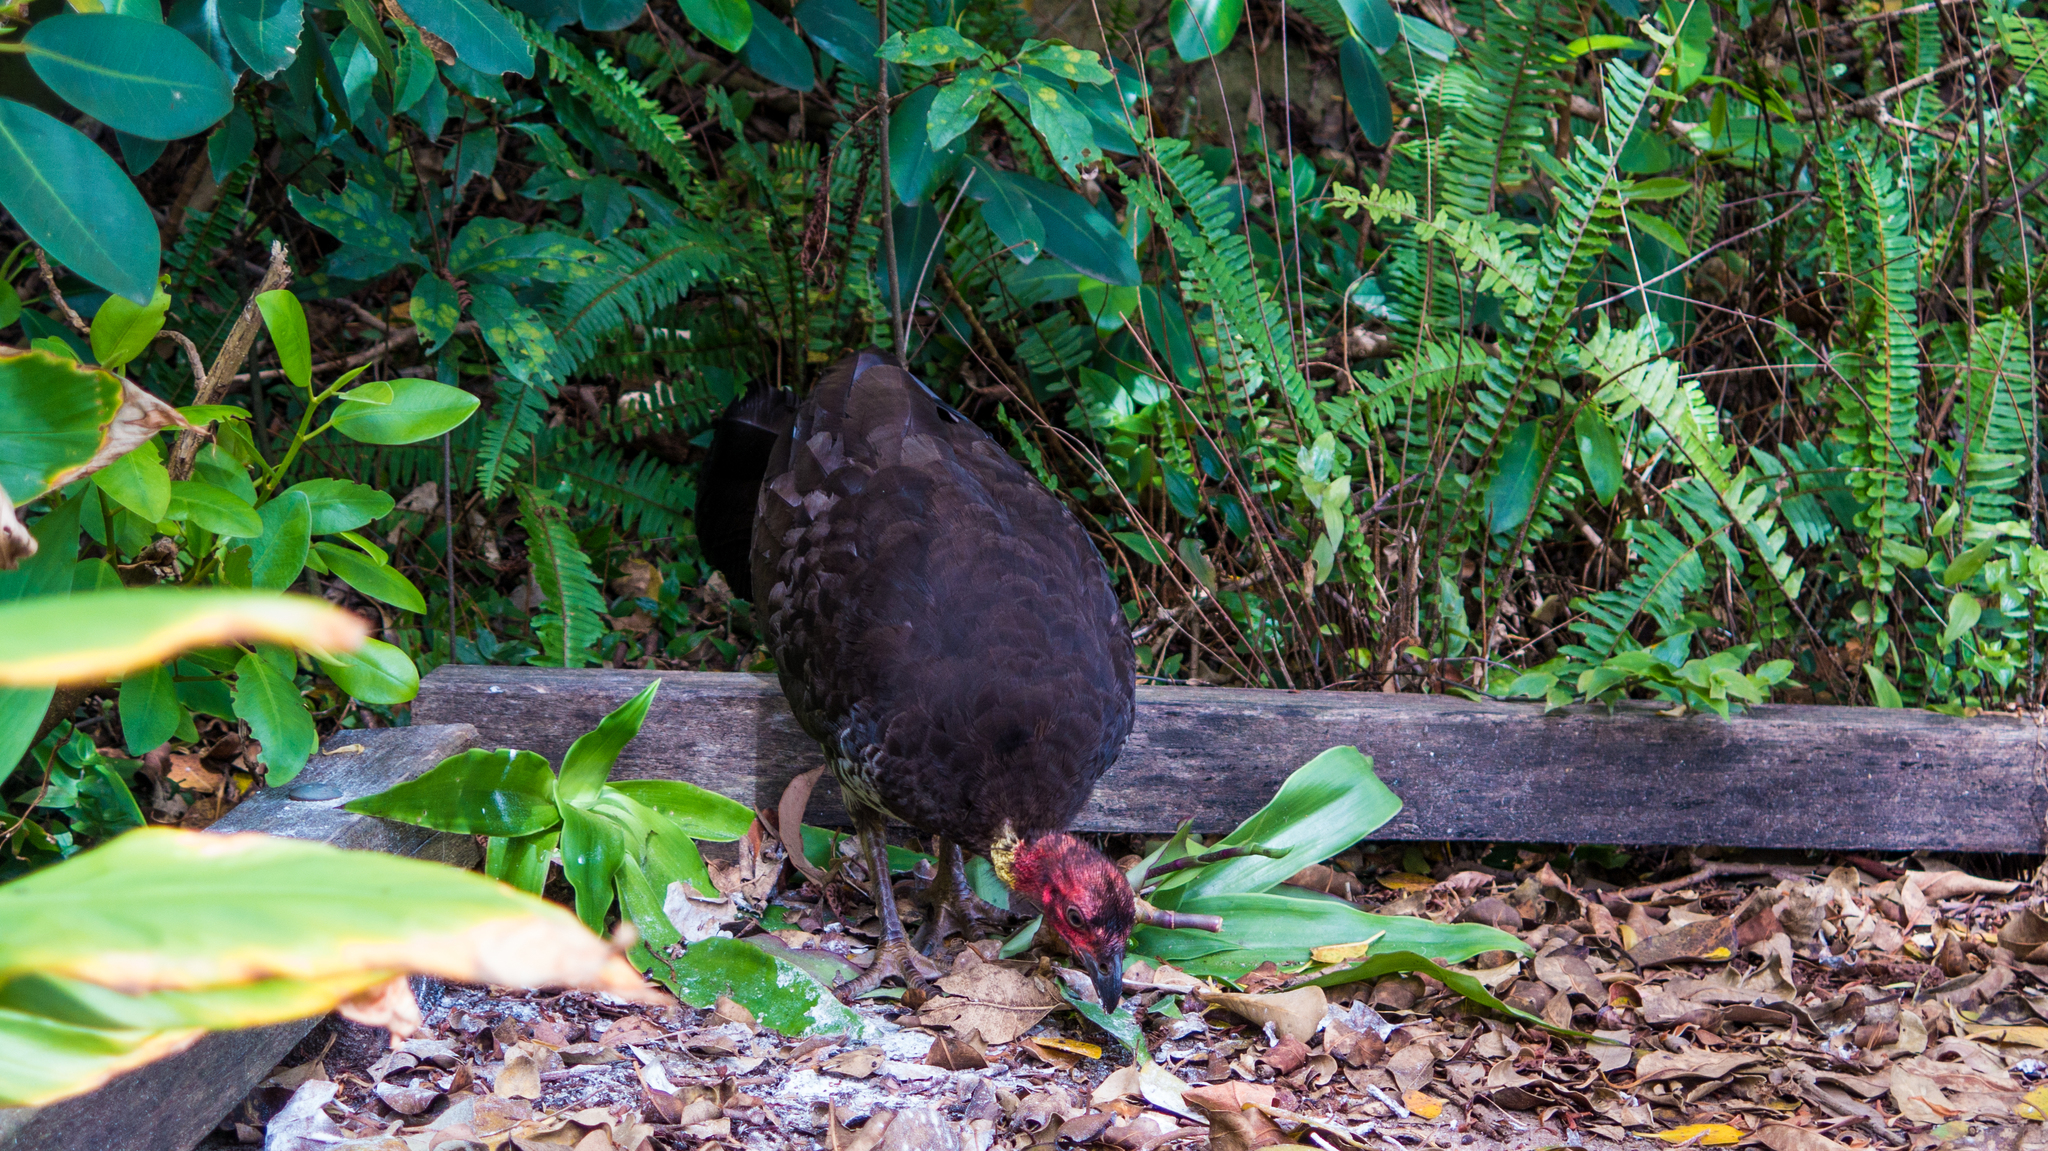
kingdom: Animalia
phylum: Chordata
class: Aves
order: Galliformes
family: Megapodiidae
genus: Alectura
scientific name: Alectura lathami
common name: Australian brushturkey
